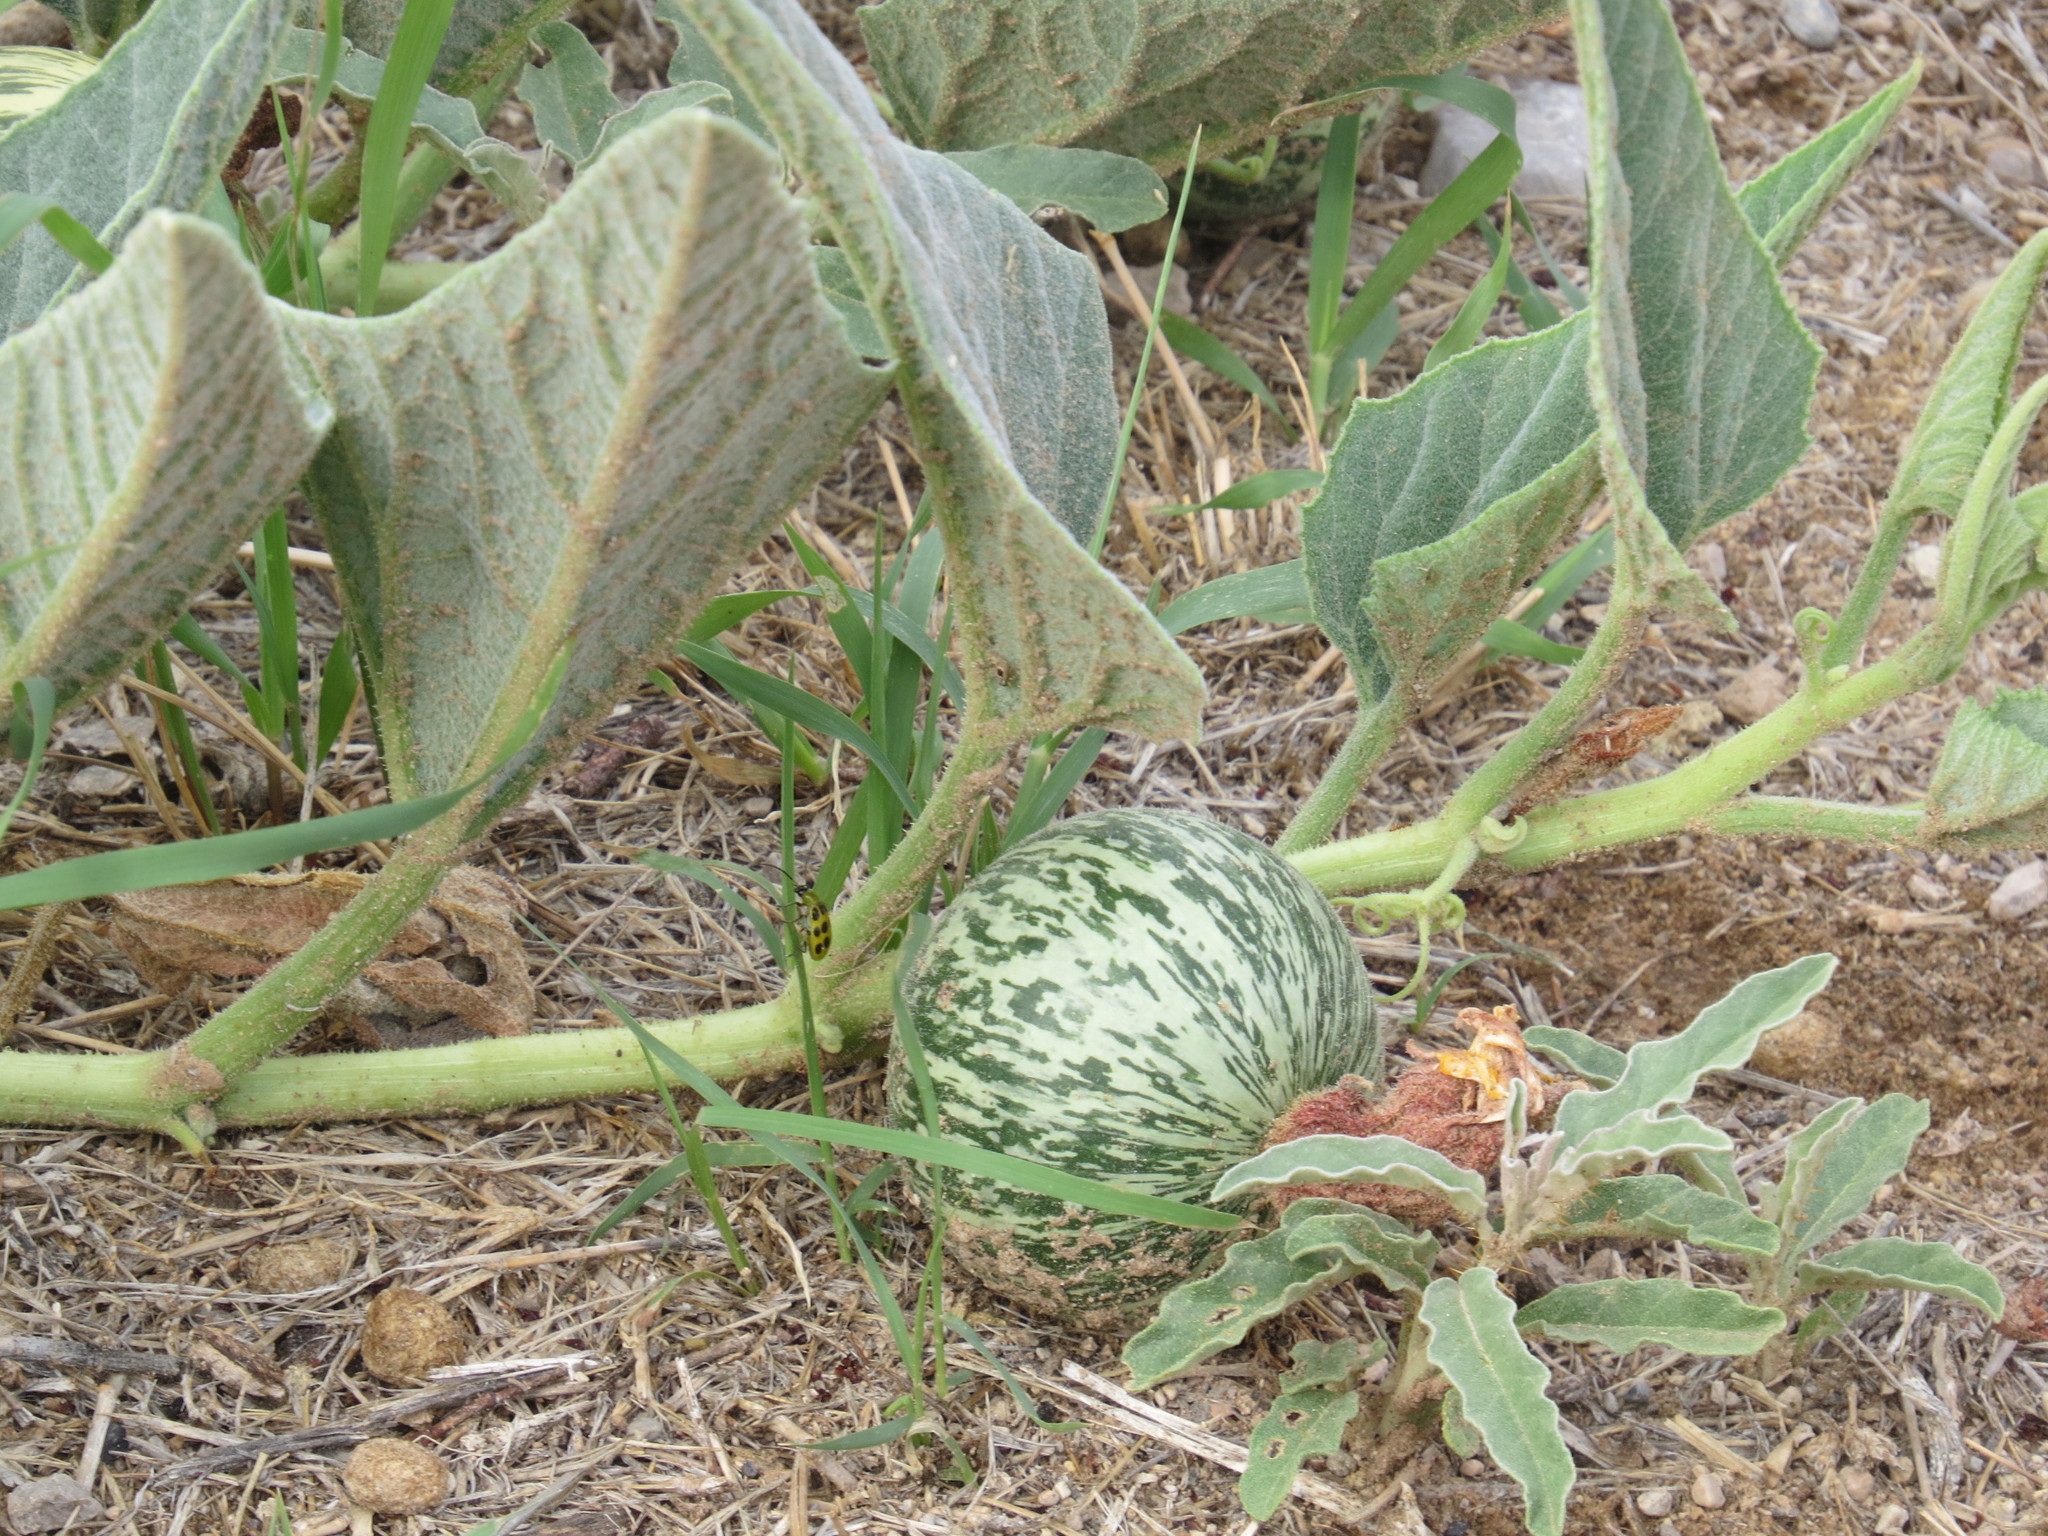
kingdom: Plantae
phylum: Tracheophyta
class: Magnoliopsida
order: Cucurbitales
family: Cucurbitaceae
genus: Cucurbita
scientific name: Cucurbita foetidissima
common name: Buffalo gourd
